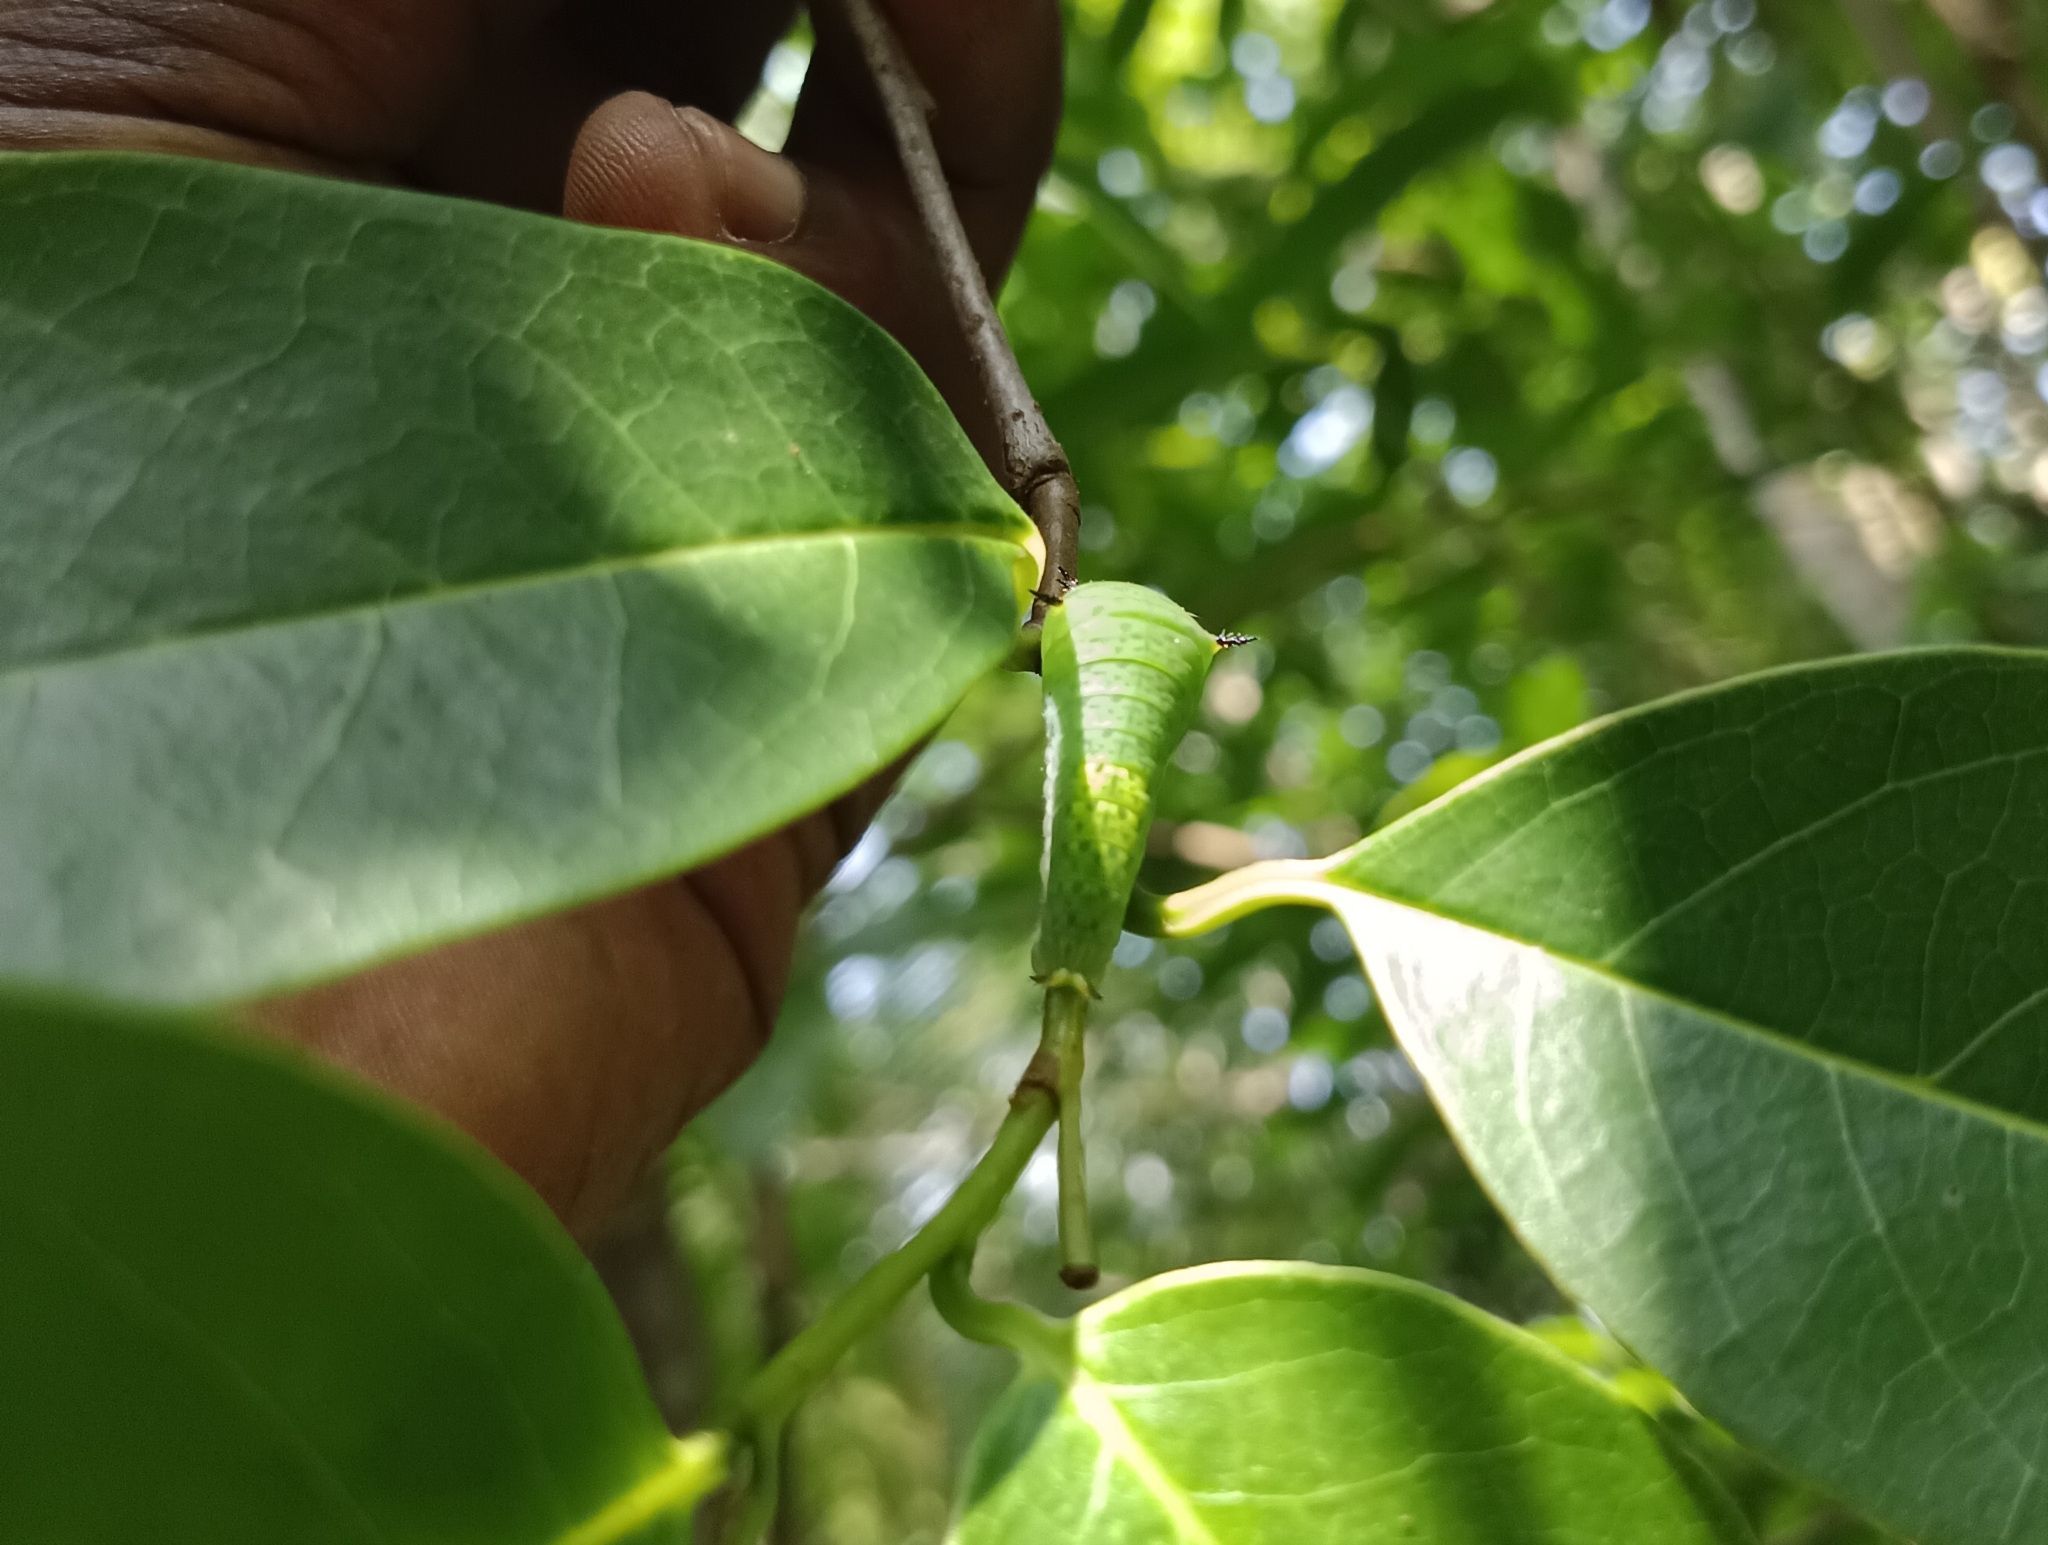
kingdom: Animalia
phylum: Arthropoda
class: Insecta
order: Lepidoptera
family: Papilionidae
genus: Graphium
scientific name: Graphium agamemnon
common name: Tailed jay
